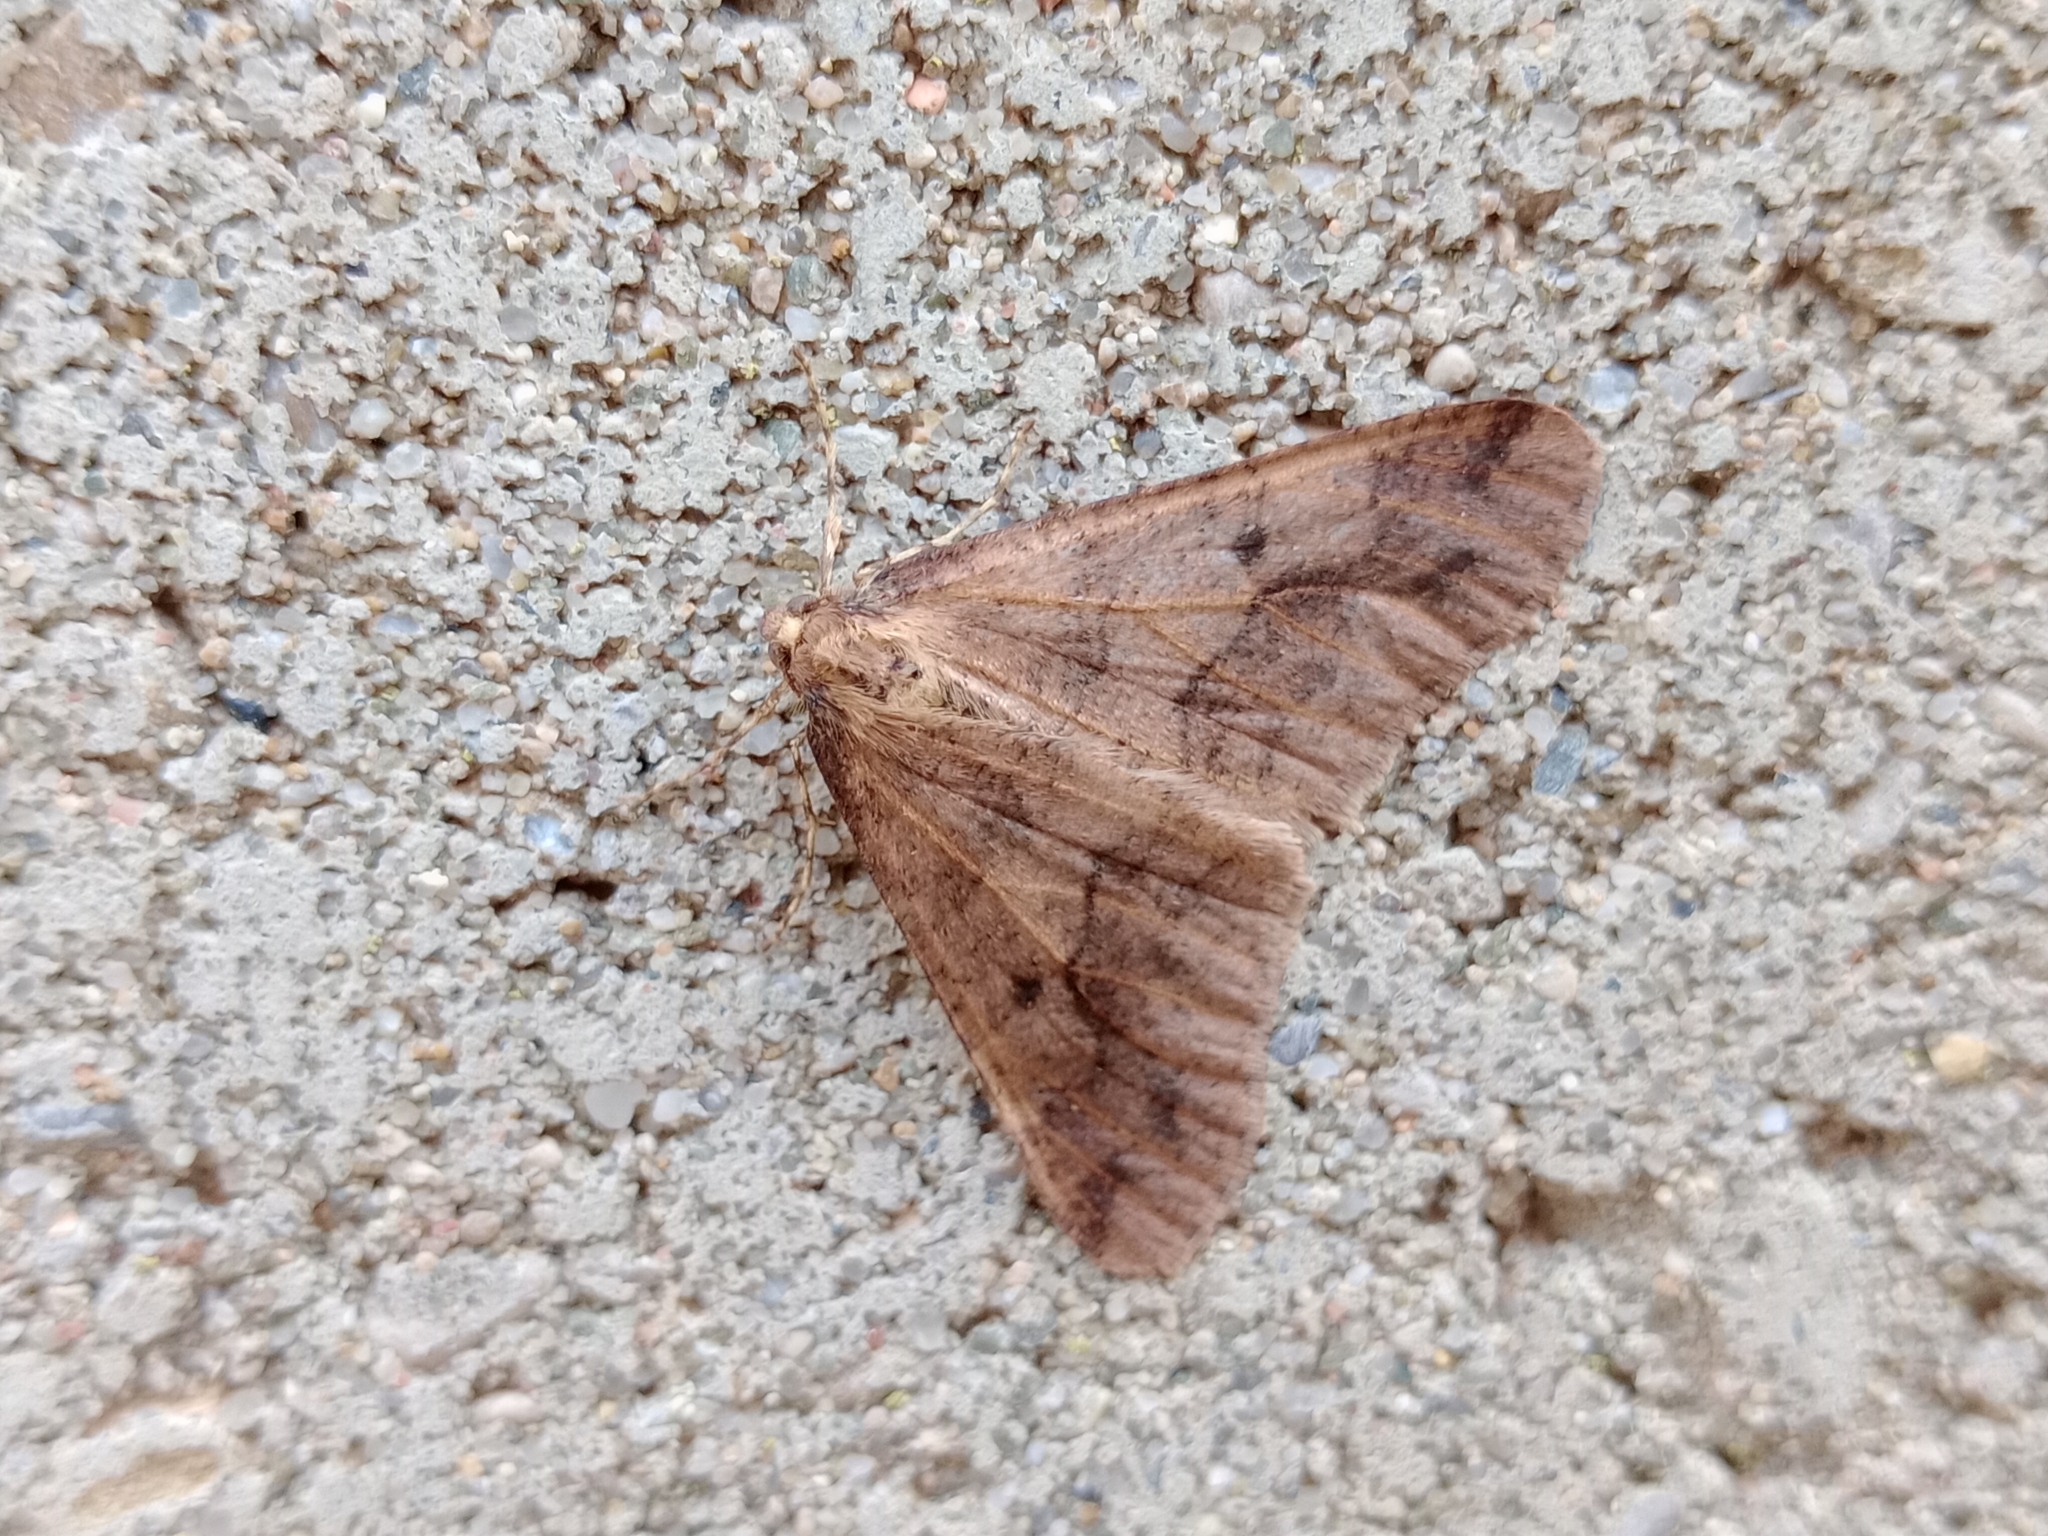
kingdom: Animalia
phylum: Arthropoda
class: Insecta
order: Lepidoptera
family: Geometridae
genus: Erannis
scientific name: Erannis defoliaria
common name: Mottled umber
